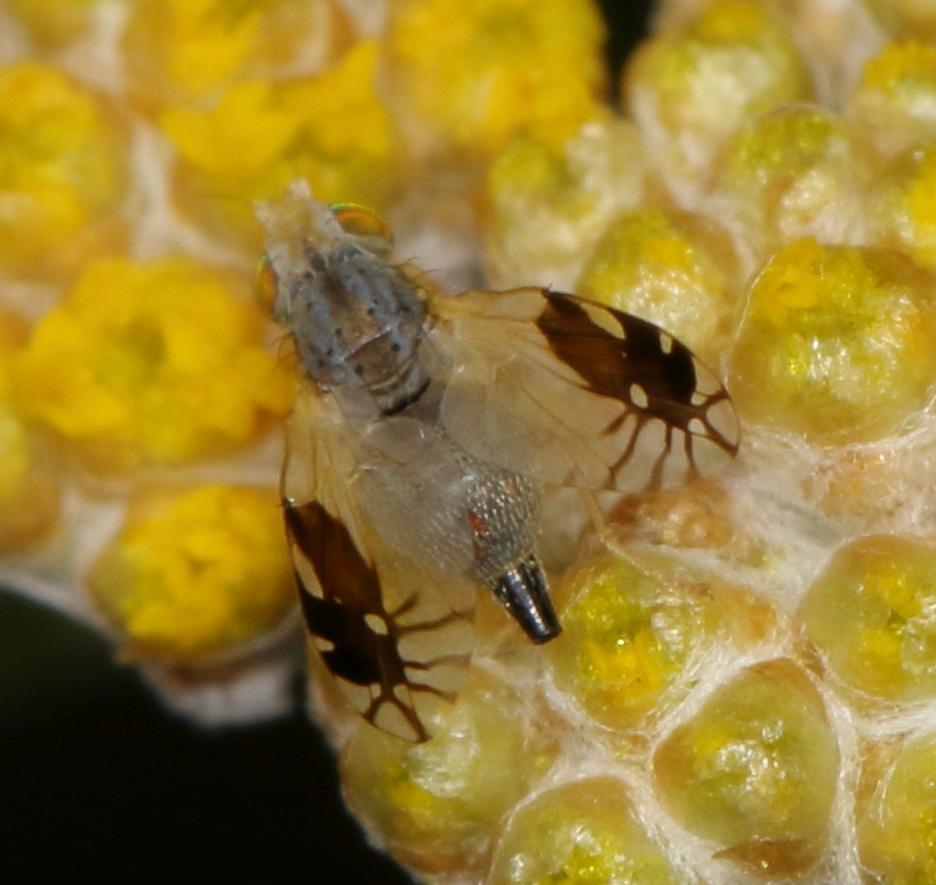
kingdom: Animalia
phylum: Arthropoda
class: Insecta
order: Diptera
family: Tephritidae
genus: Dectodesis
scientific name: Dectodesis confluens
